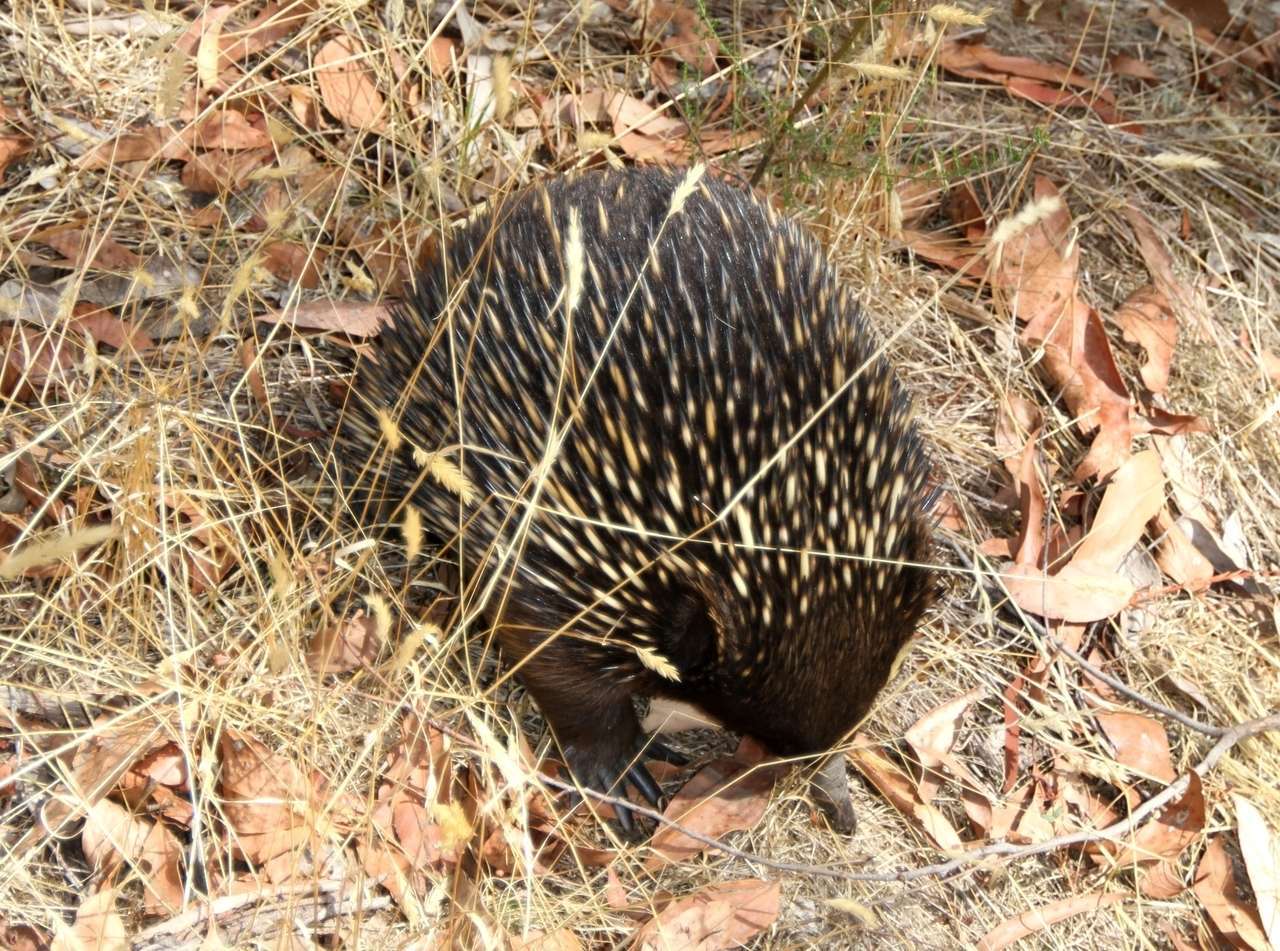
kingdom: Animalia
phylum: Chordata
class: Mammalia
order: Monotremata
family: Tachyglossidae
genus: Tachyglossus
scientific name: Tachyglossus aculeatus
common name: Short-beaked echidna
